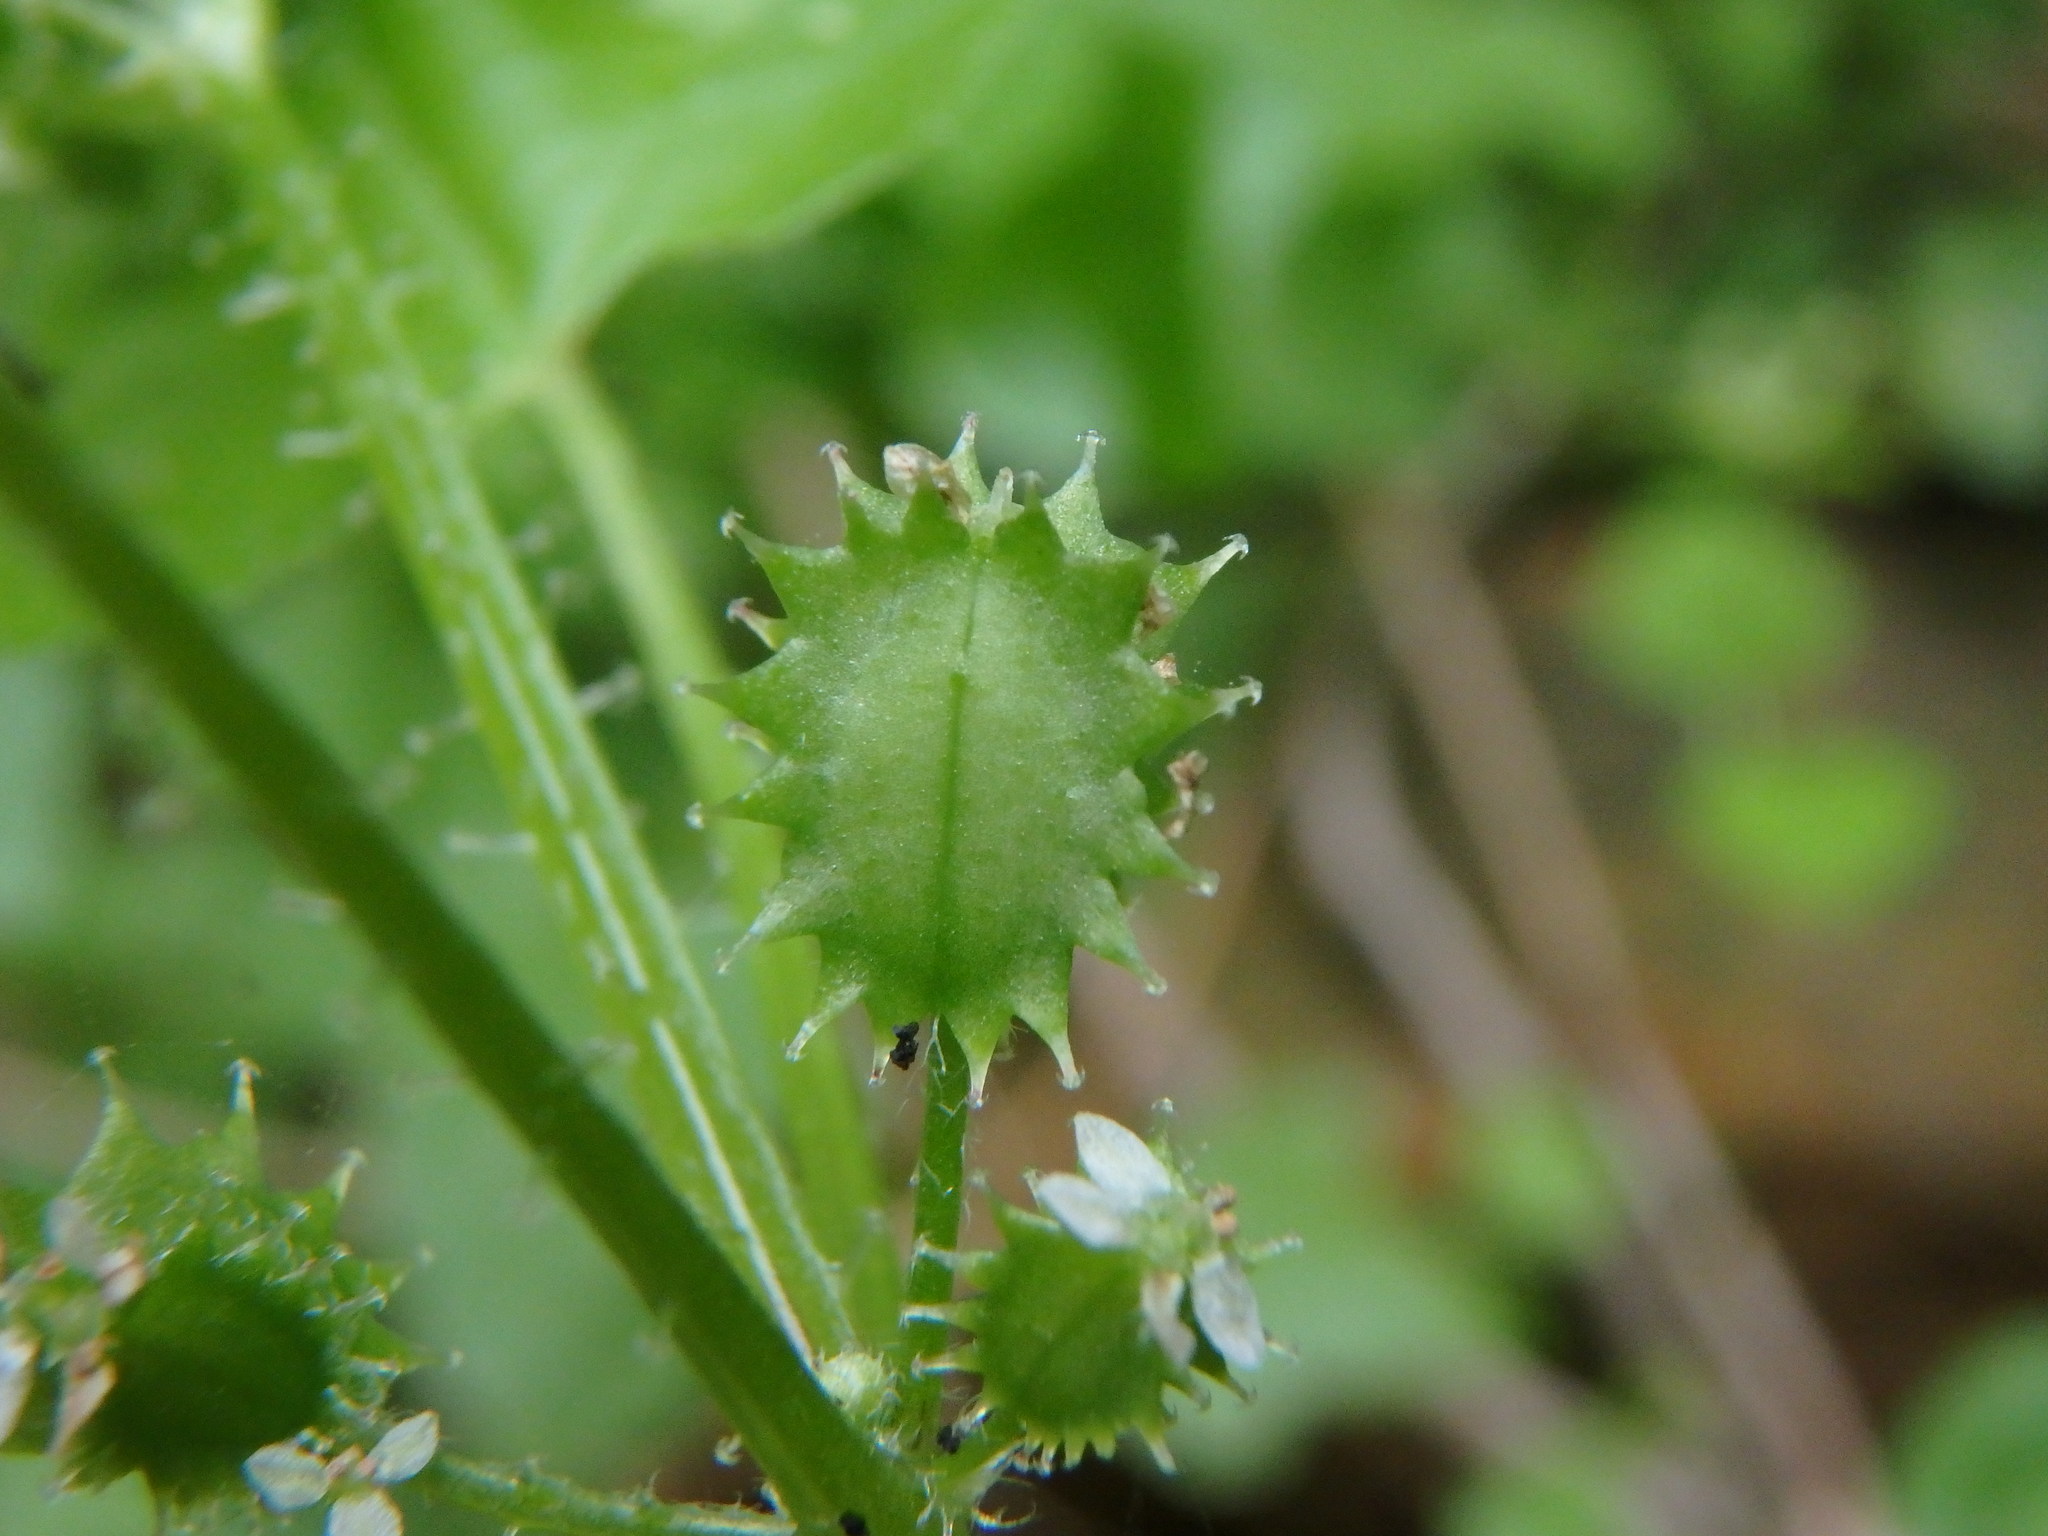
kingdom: Plantae
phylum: Tracheophyta
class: Magnoliopsida
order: Apiales
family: Apiaceae
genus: Drusa
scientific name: Drusa glandulosa
